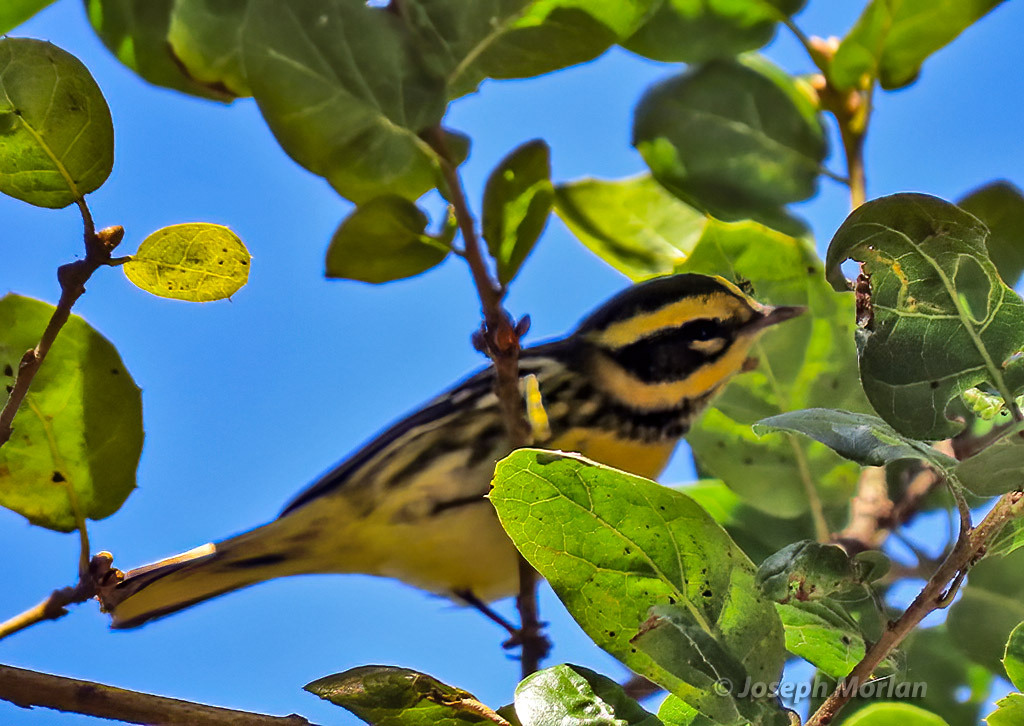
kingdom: Animalia
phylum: Chordata
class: Aves
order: Passeriformes
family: Parulidae
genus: Setophaga
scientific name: Setophaga townsendi
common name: Townsend's warbler
